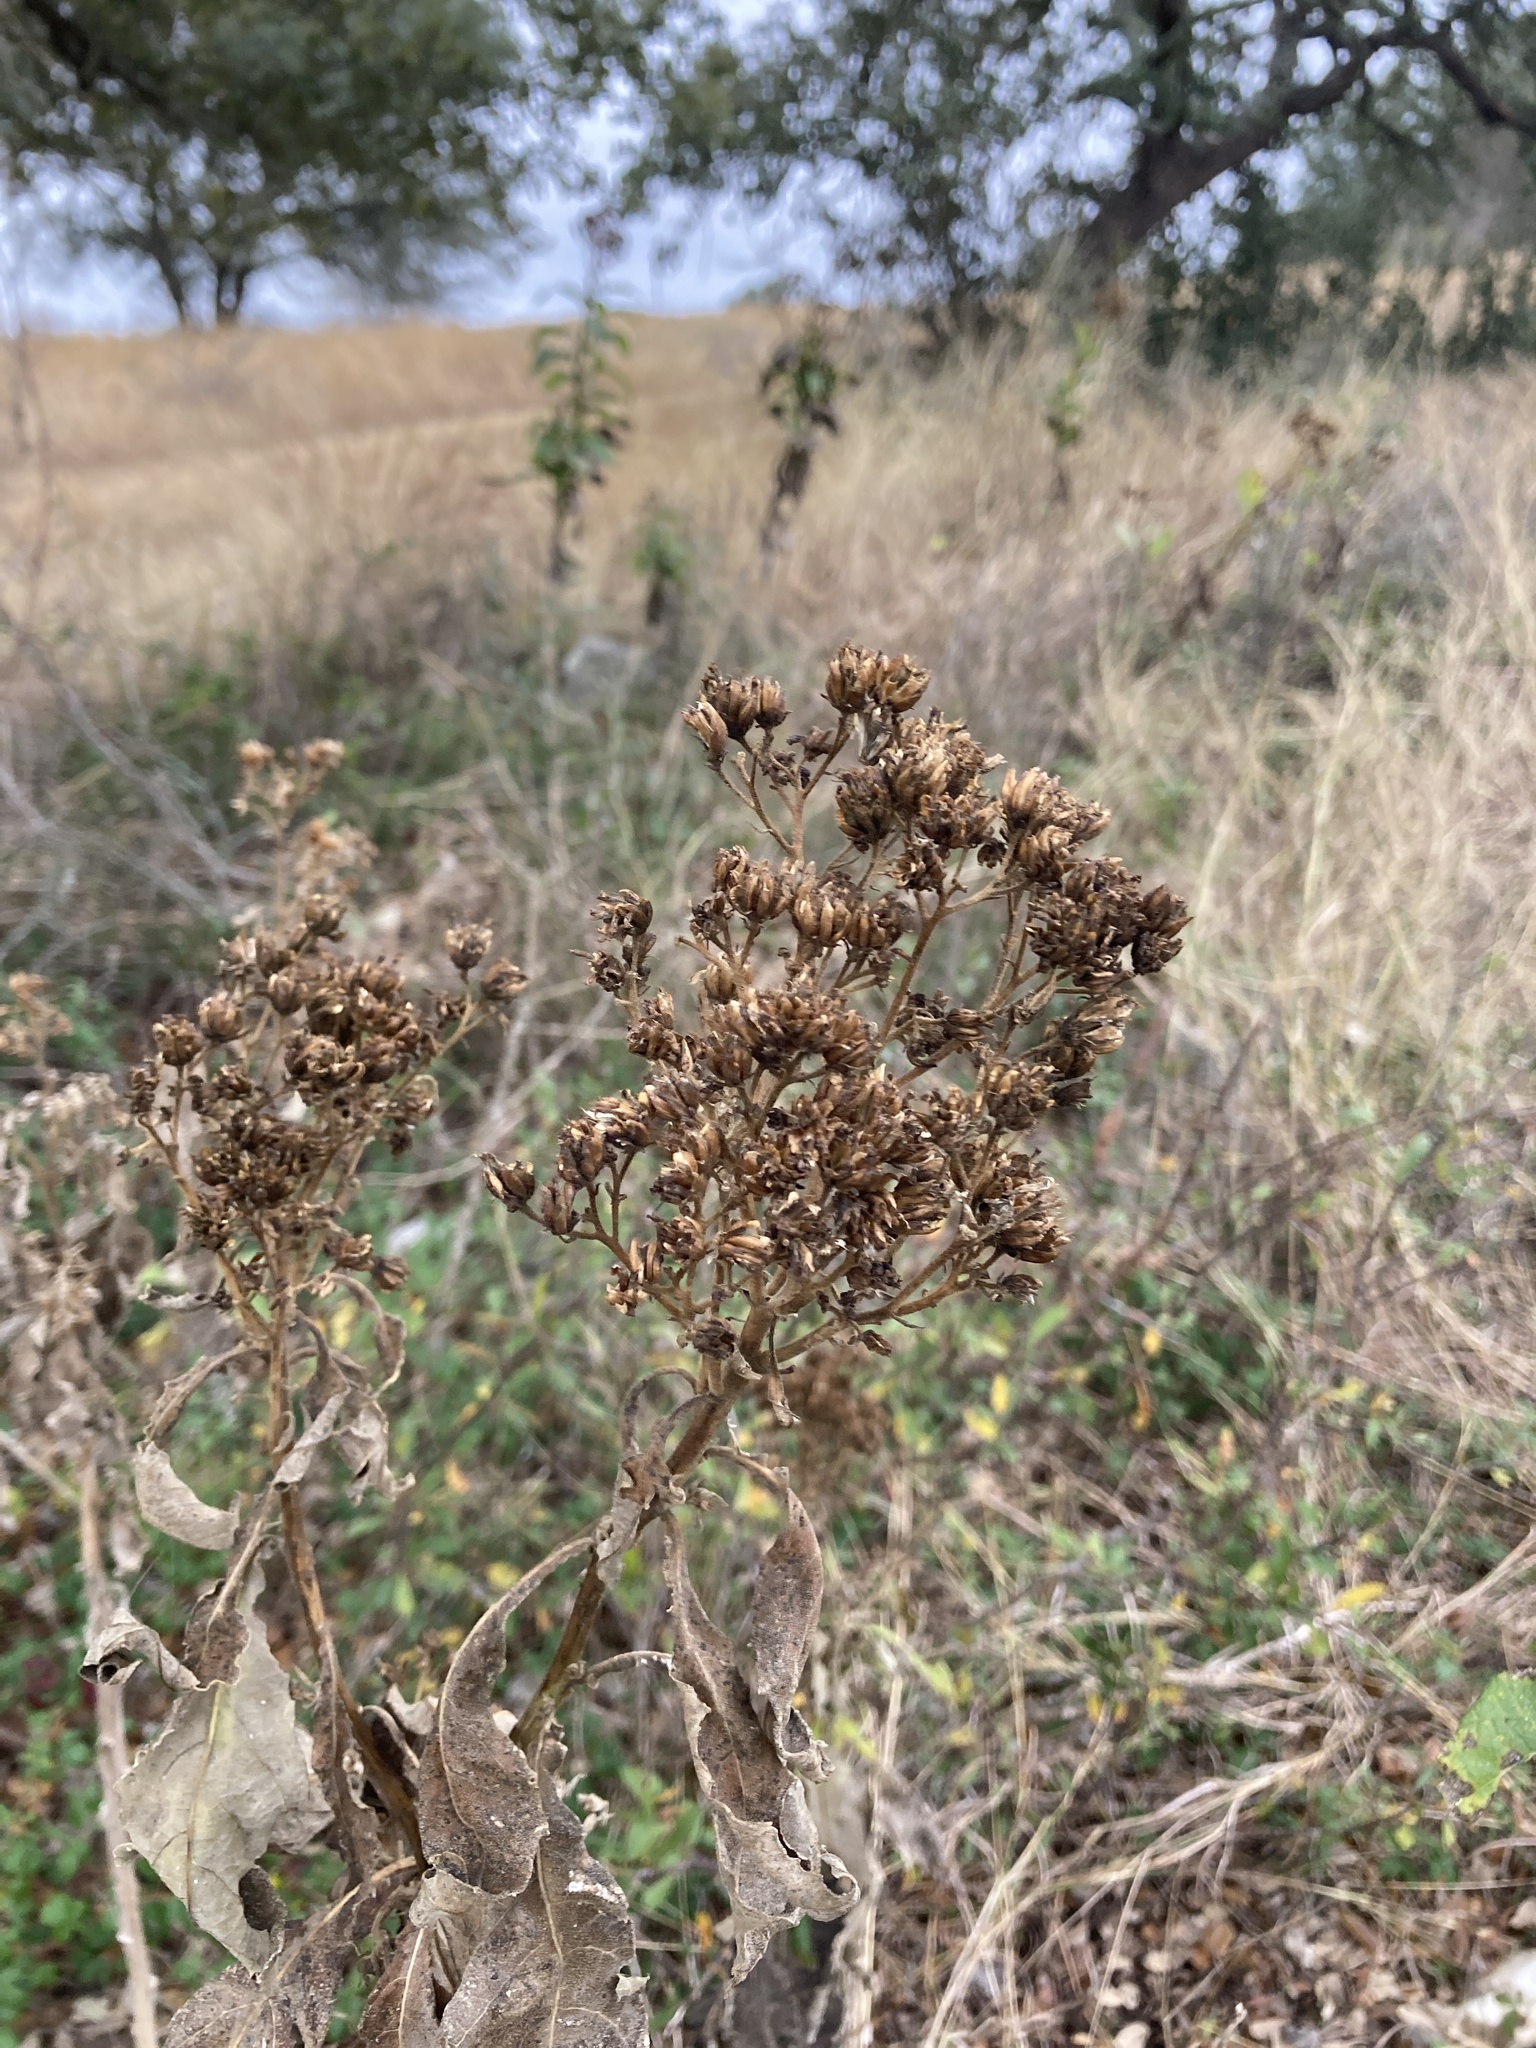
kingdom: Plantae
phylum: Tracheophyta
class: Magnoliopsida
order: Asterales
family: Asteraceae
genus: Verbesina
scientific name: Verbesina virginica
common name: Frostweed
